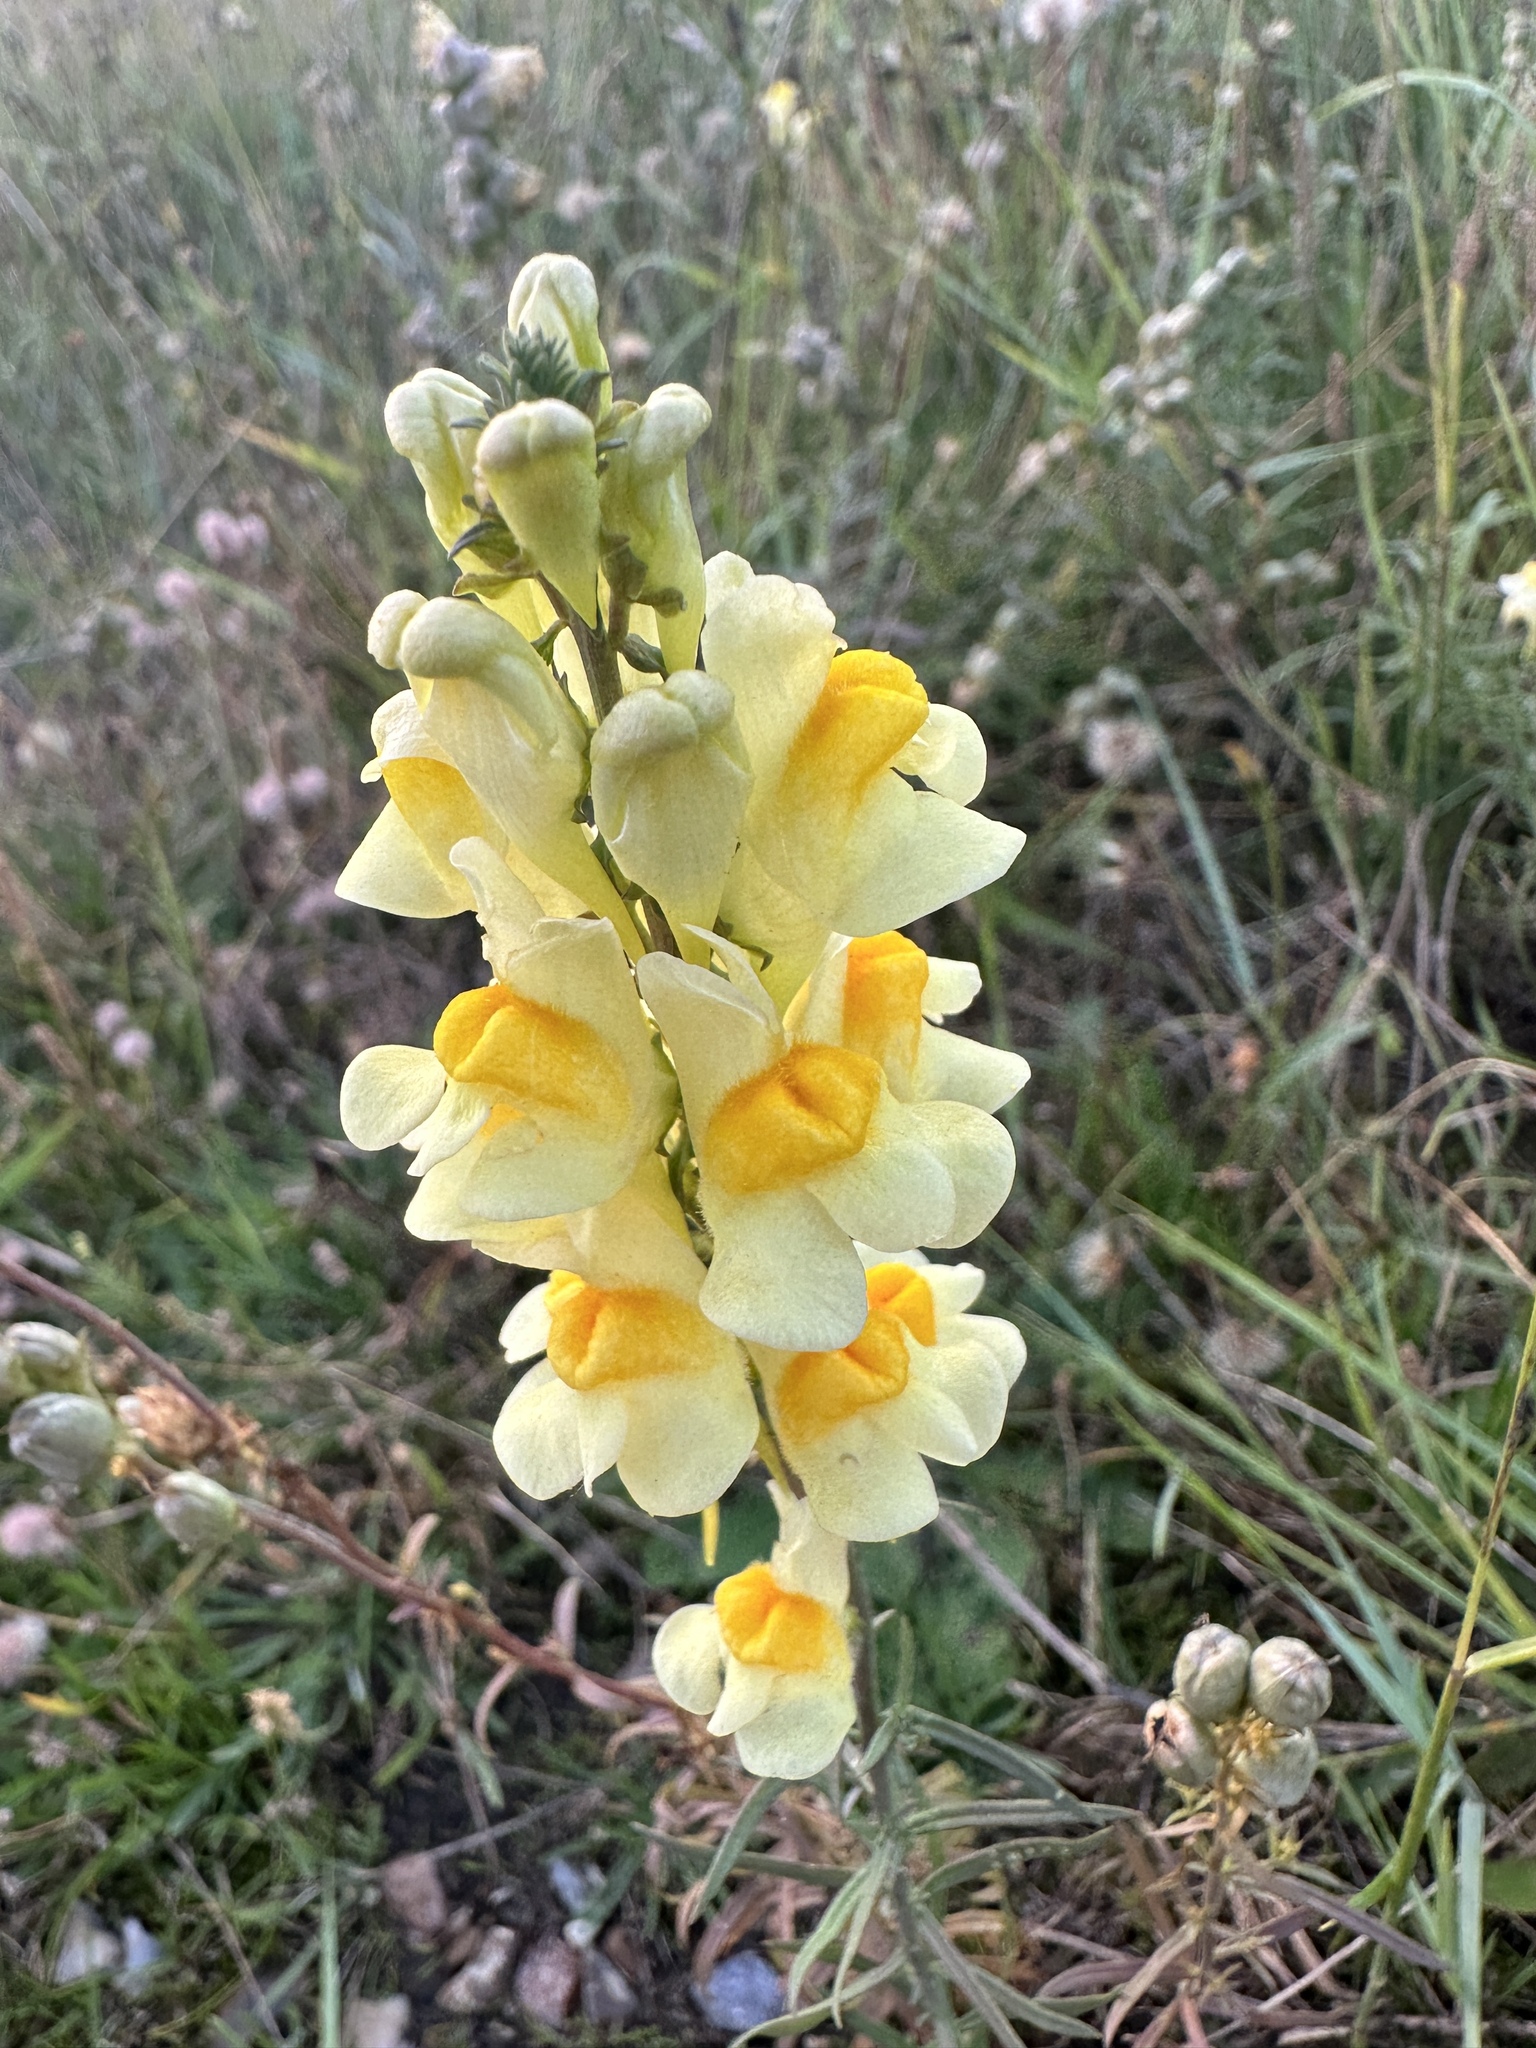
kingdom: Plantae
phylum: Tracheophyta
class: Magnoliopsida
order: Lamiales
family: Plantaginaceae
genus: Linaria
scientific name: Linaria vulgaris
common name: Butter and eggs
